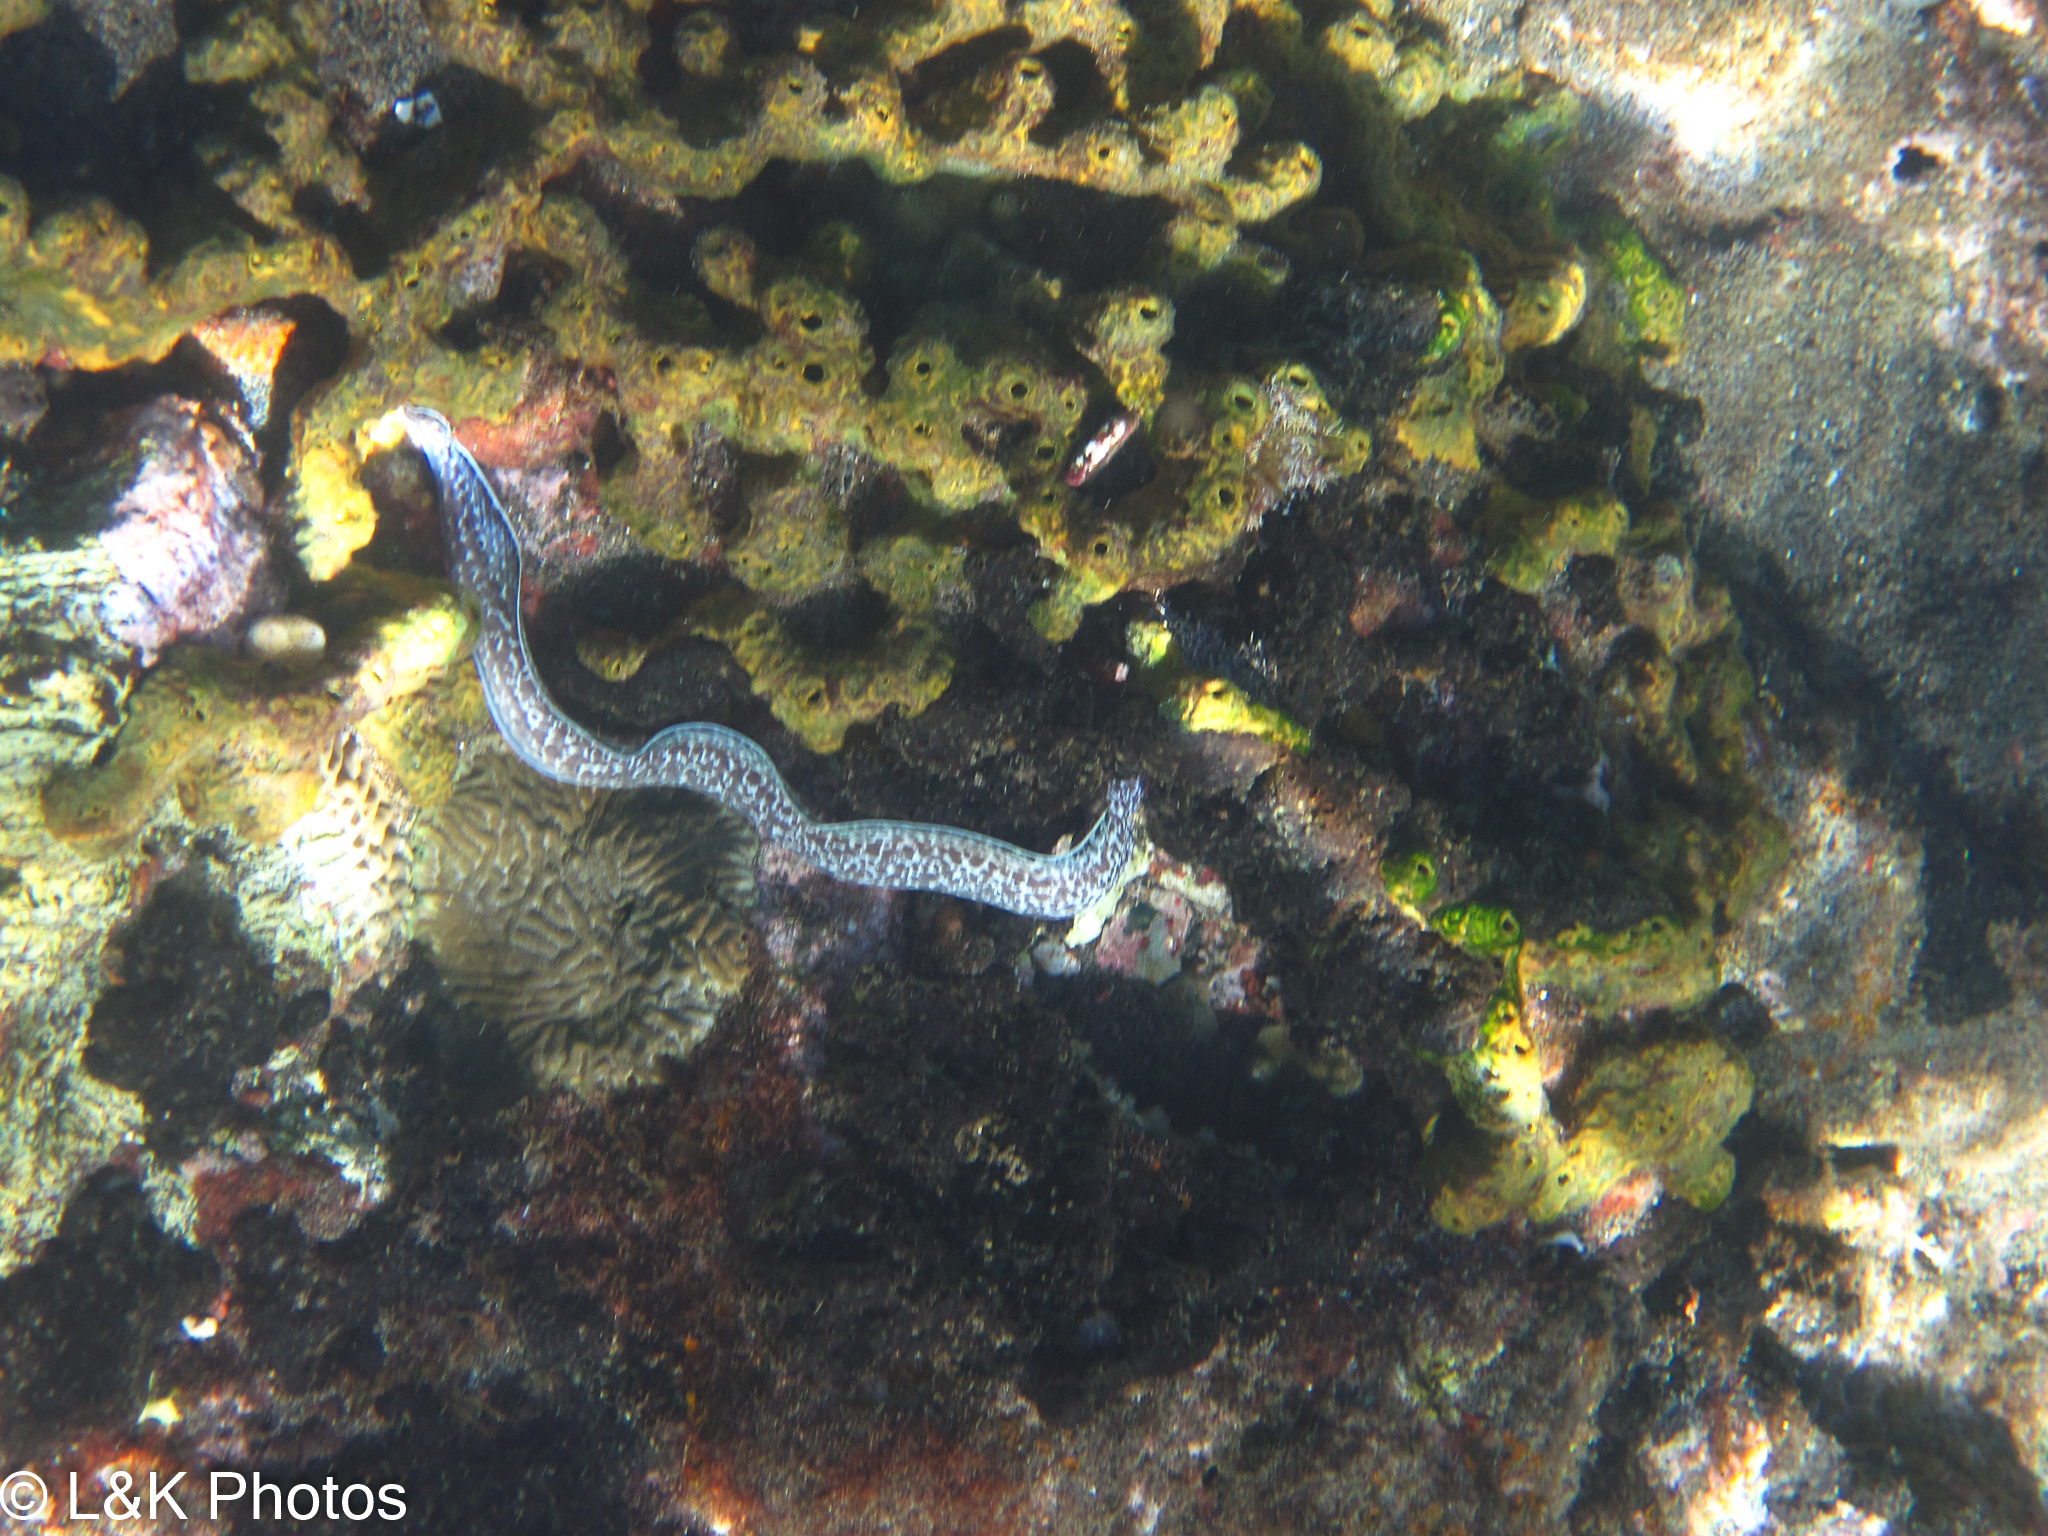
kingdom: Animalia
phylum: Chordata
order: Anguilliformes
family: Muraenidae
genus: Gymnothorax
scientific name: Gymnothorax moringa
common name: Spotted moray
